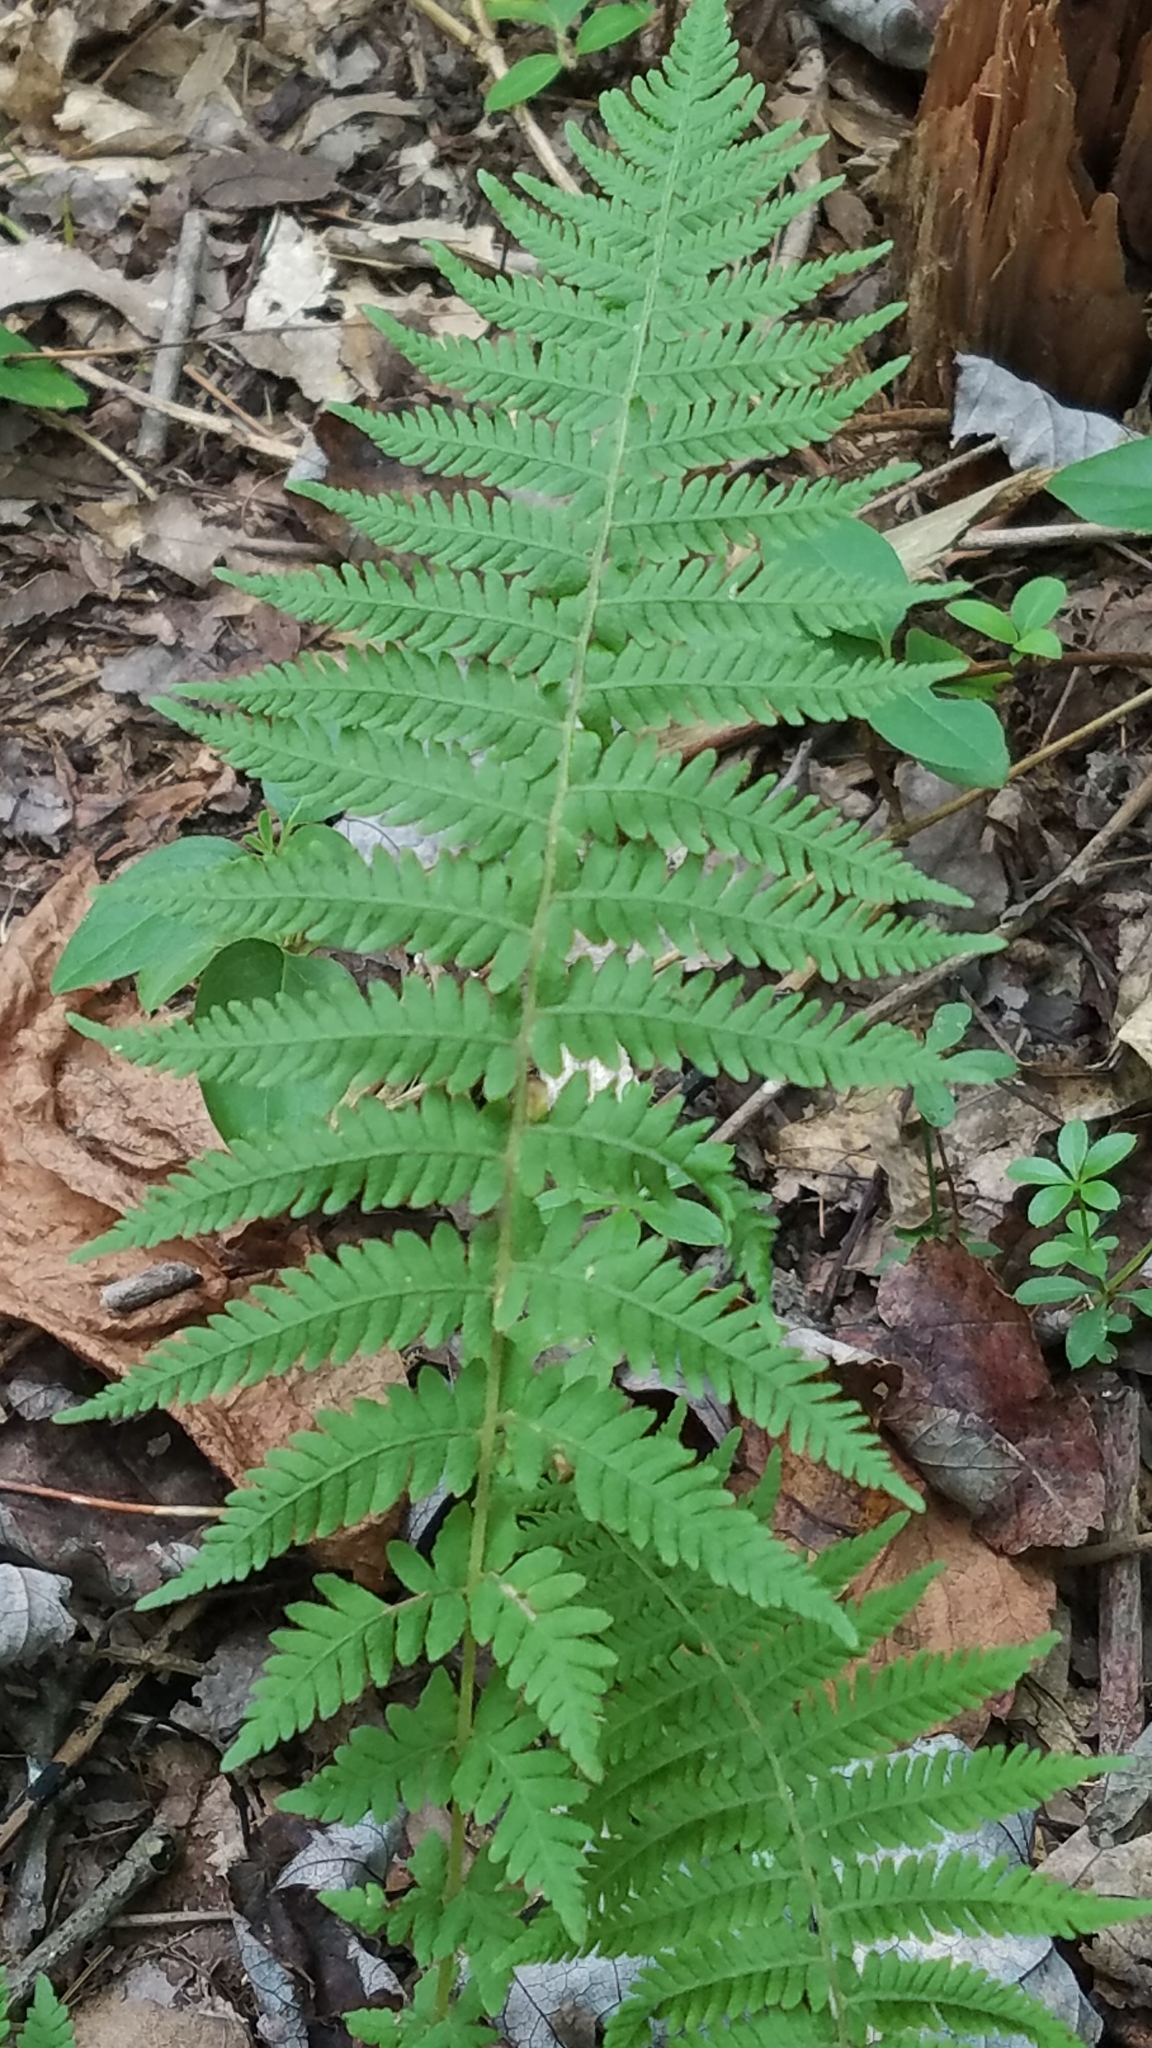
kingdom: Plantae
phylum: Tracheophyta
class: Polypodiopsida
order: Polypodiales
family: Thelypteridaceae
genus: Amauropelta
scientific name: Amauropelta noveboracensis
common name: New york fern
